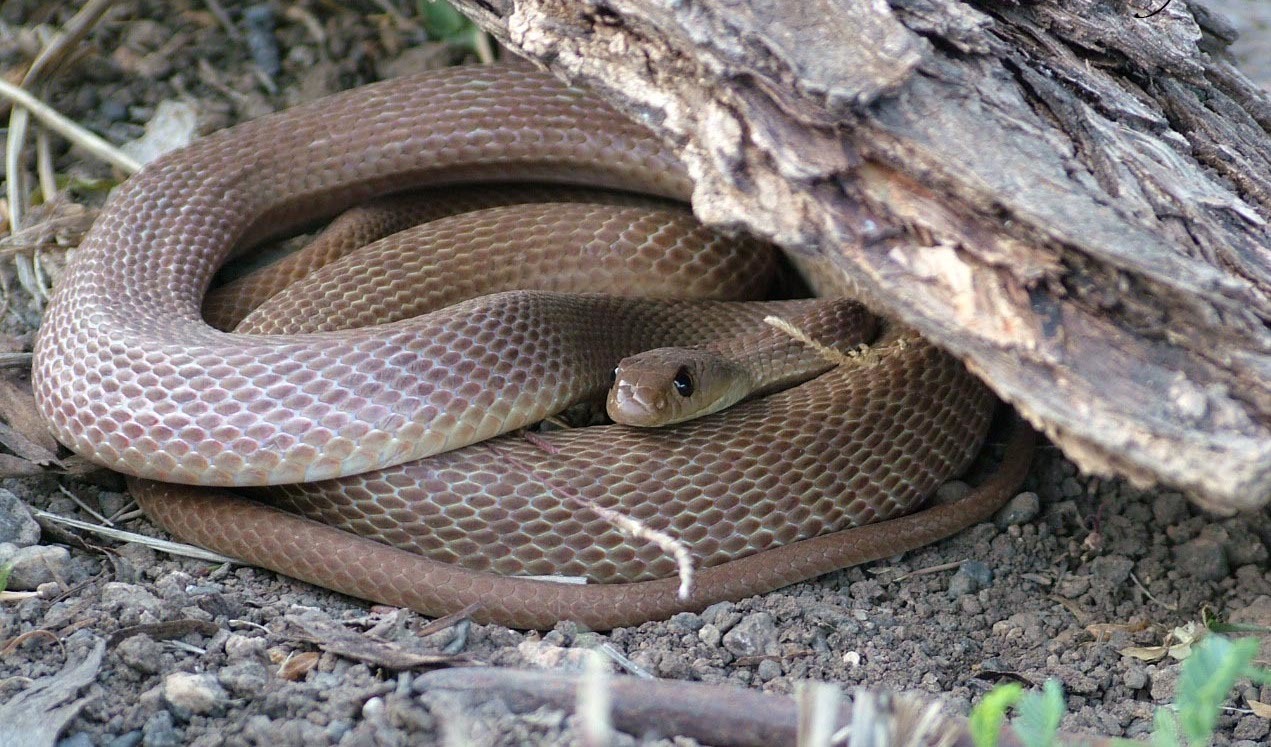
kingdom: Animalia
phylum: Chordata
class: Squamata
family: Colubridae
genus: Platyceps
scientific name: Platyceps plinii
